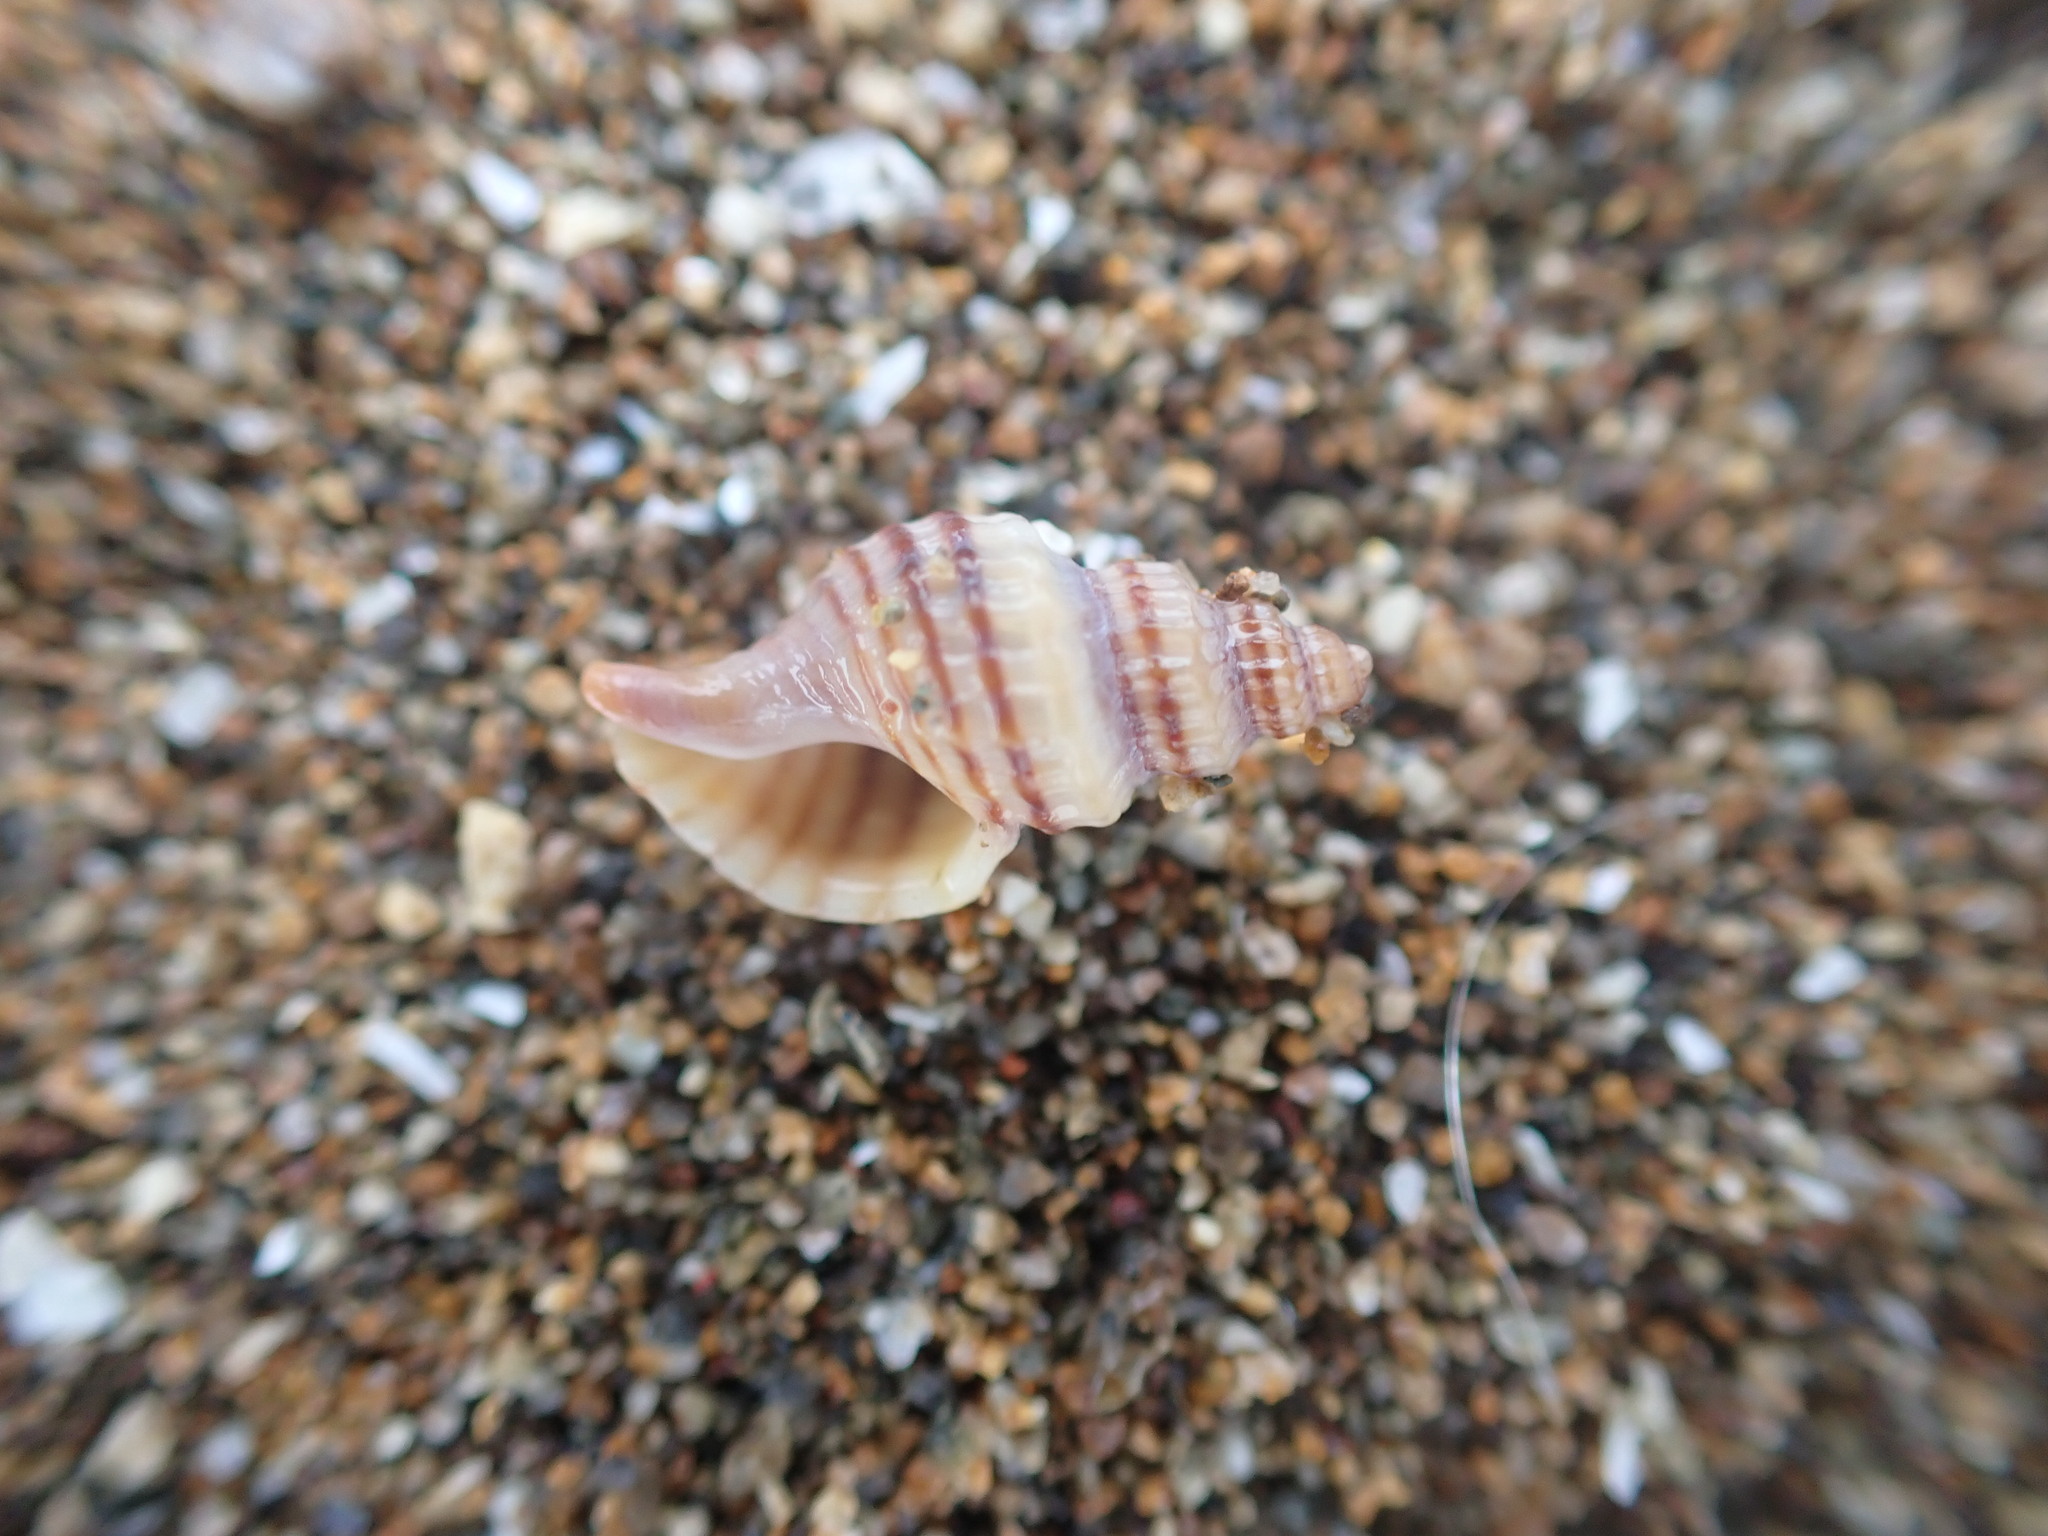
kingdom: Animalia
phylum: Mollusca
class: Gastropoda
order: Neogastropoda
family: Muricidae
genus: Xymene
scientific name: Xymene plebeius
